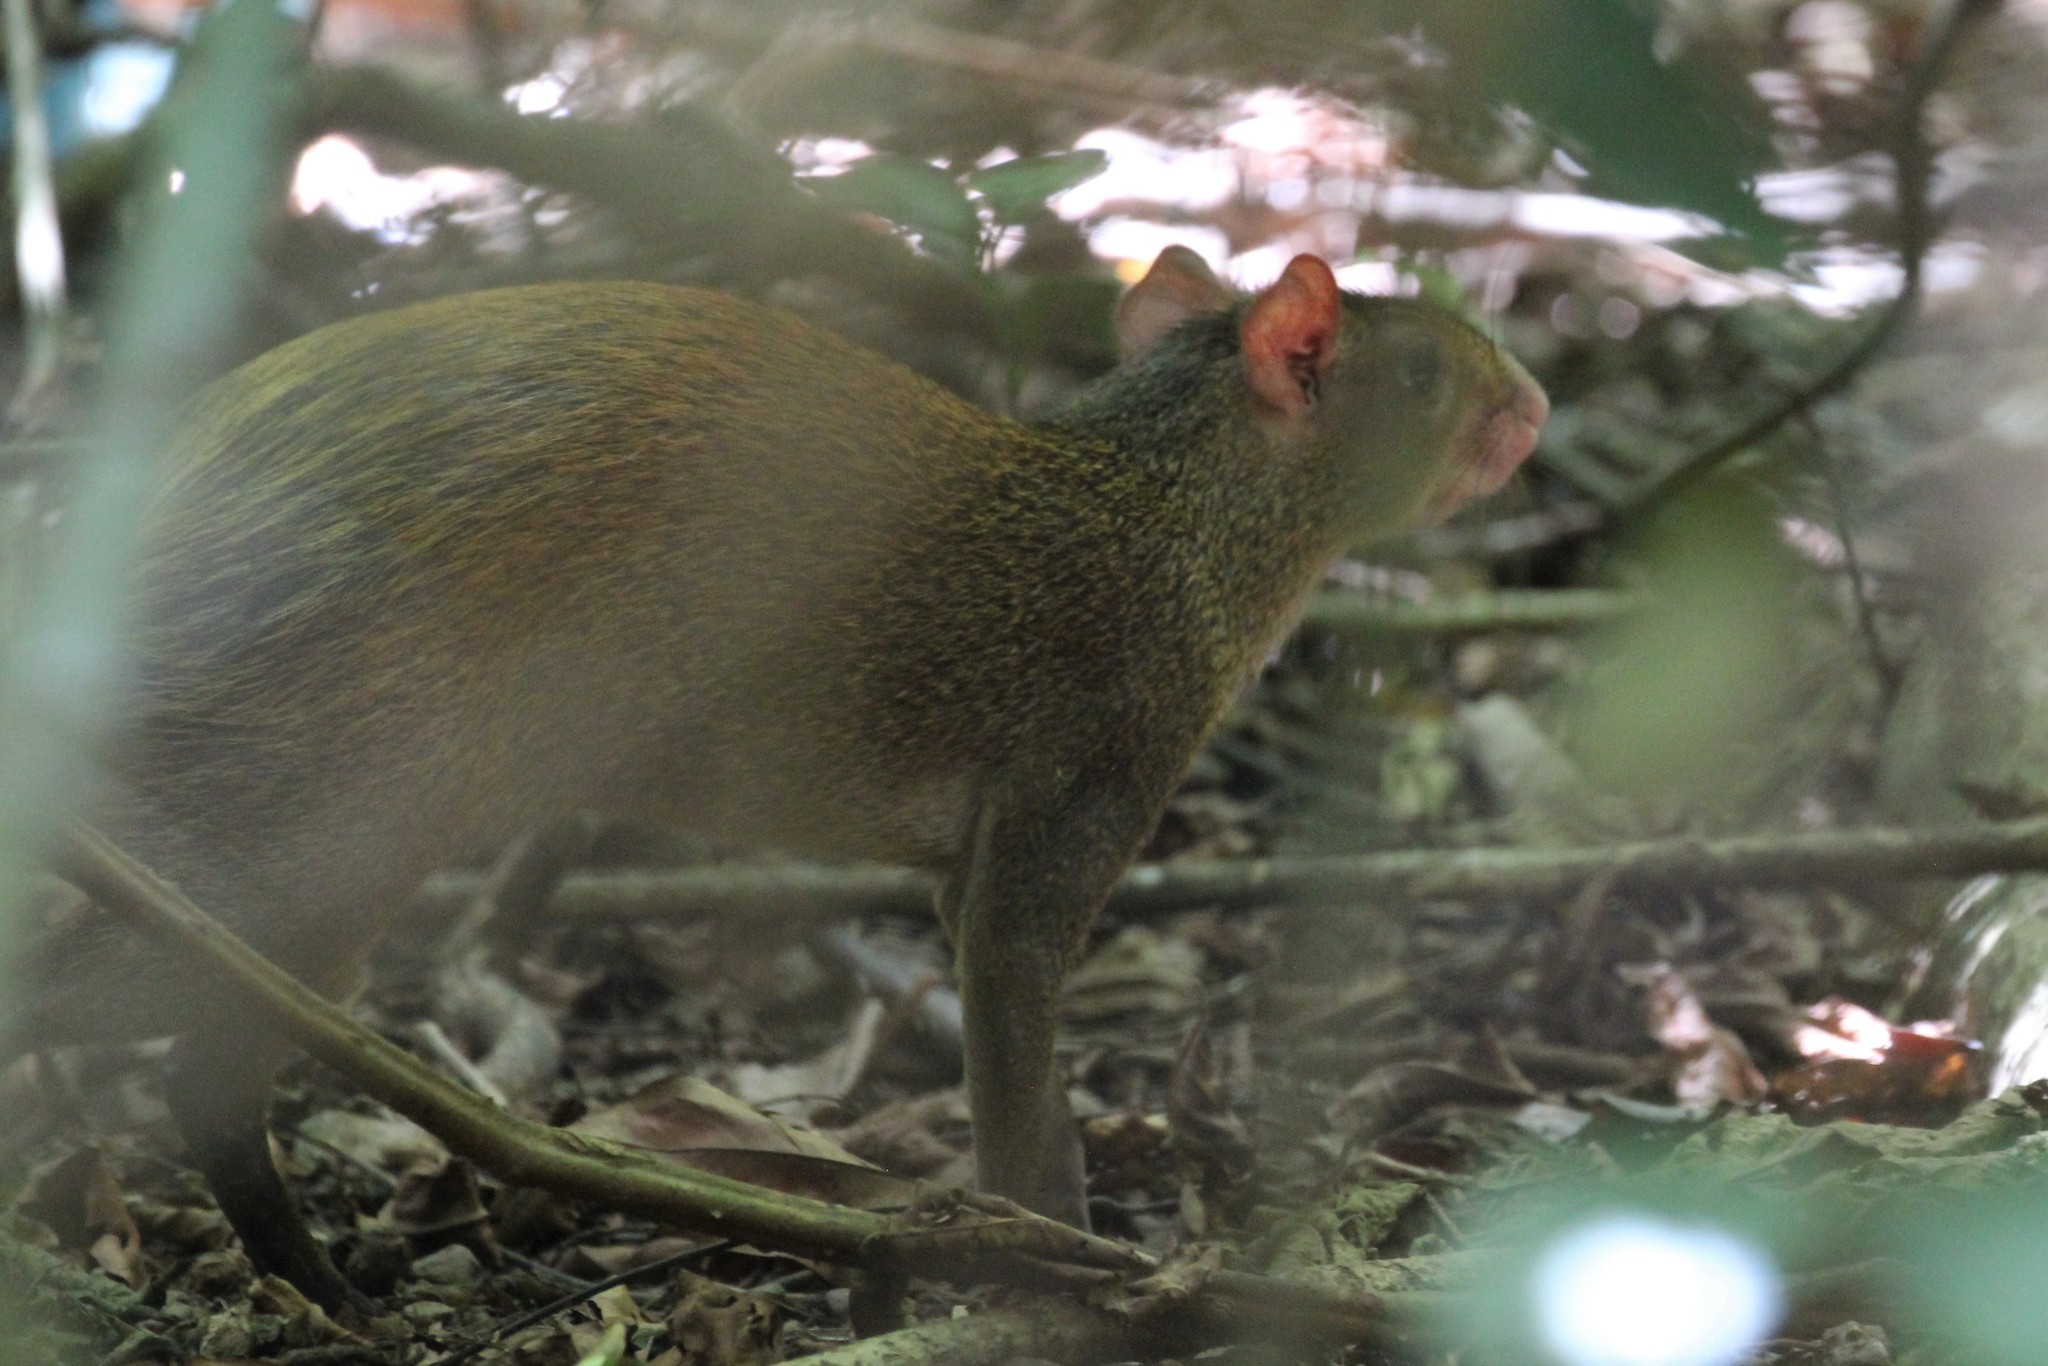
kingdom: Animalia
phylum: Chordata
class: Mammalia
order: Rodentia
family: Dasyproctidae
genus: Dasyprocta
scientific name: Dasyprocta punctata
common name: Central american agouti
